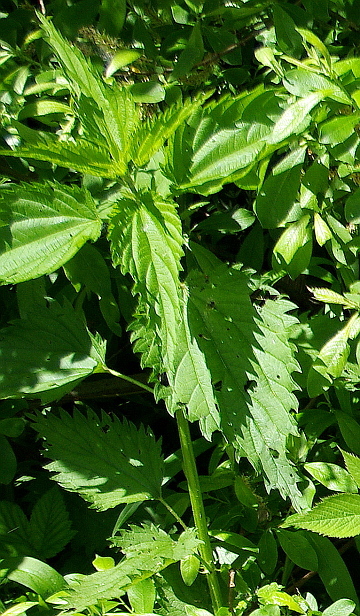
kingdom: Plantae
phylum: Tracheophyta
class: Magnoliopsida
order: Rosales
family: Urticaceae
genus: Urtica
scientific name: Urtica dioica
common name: Common nettle
